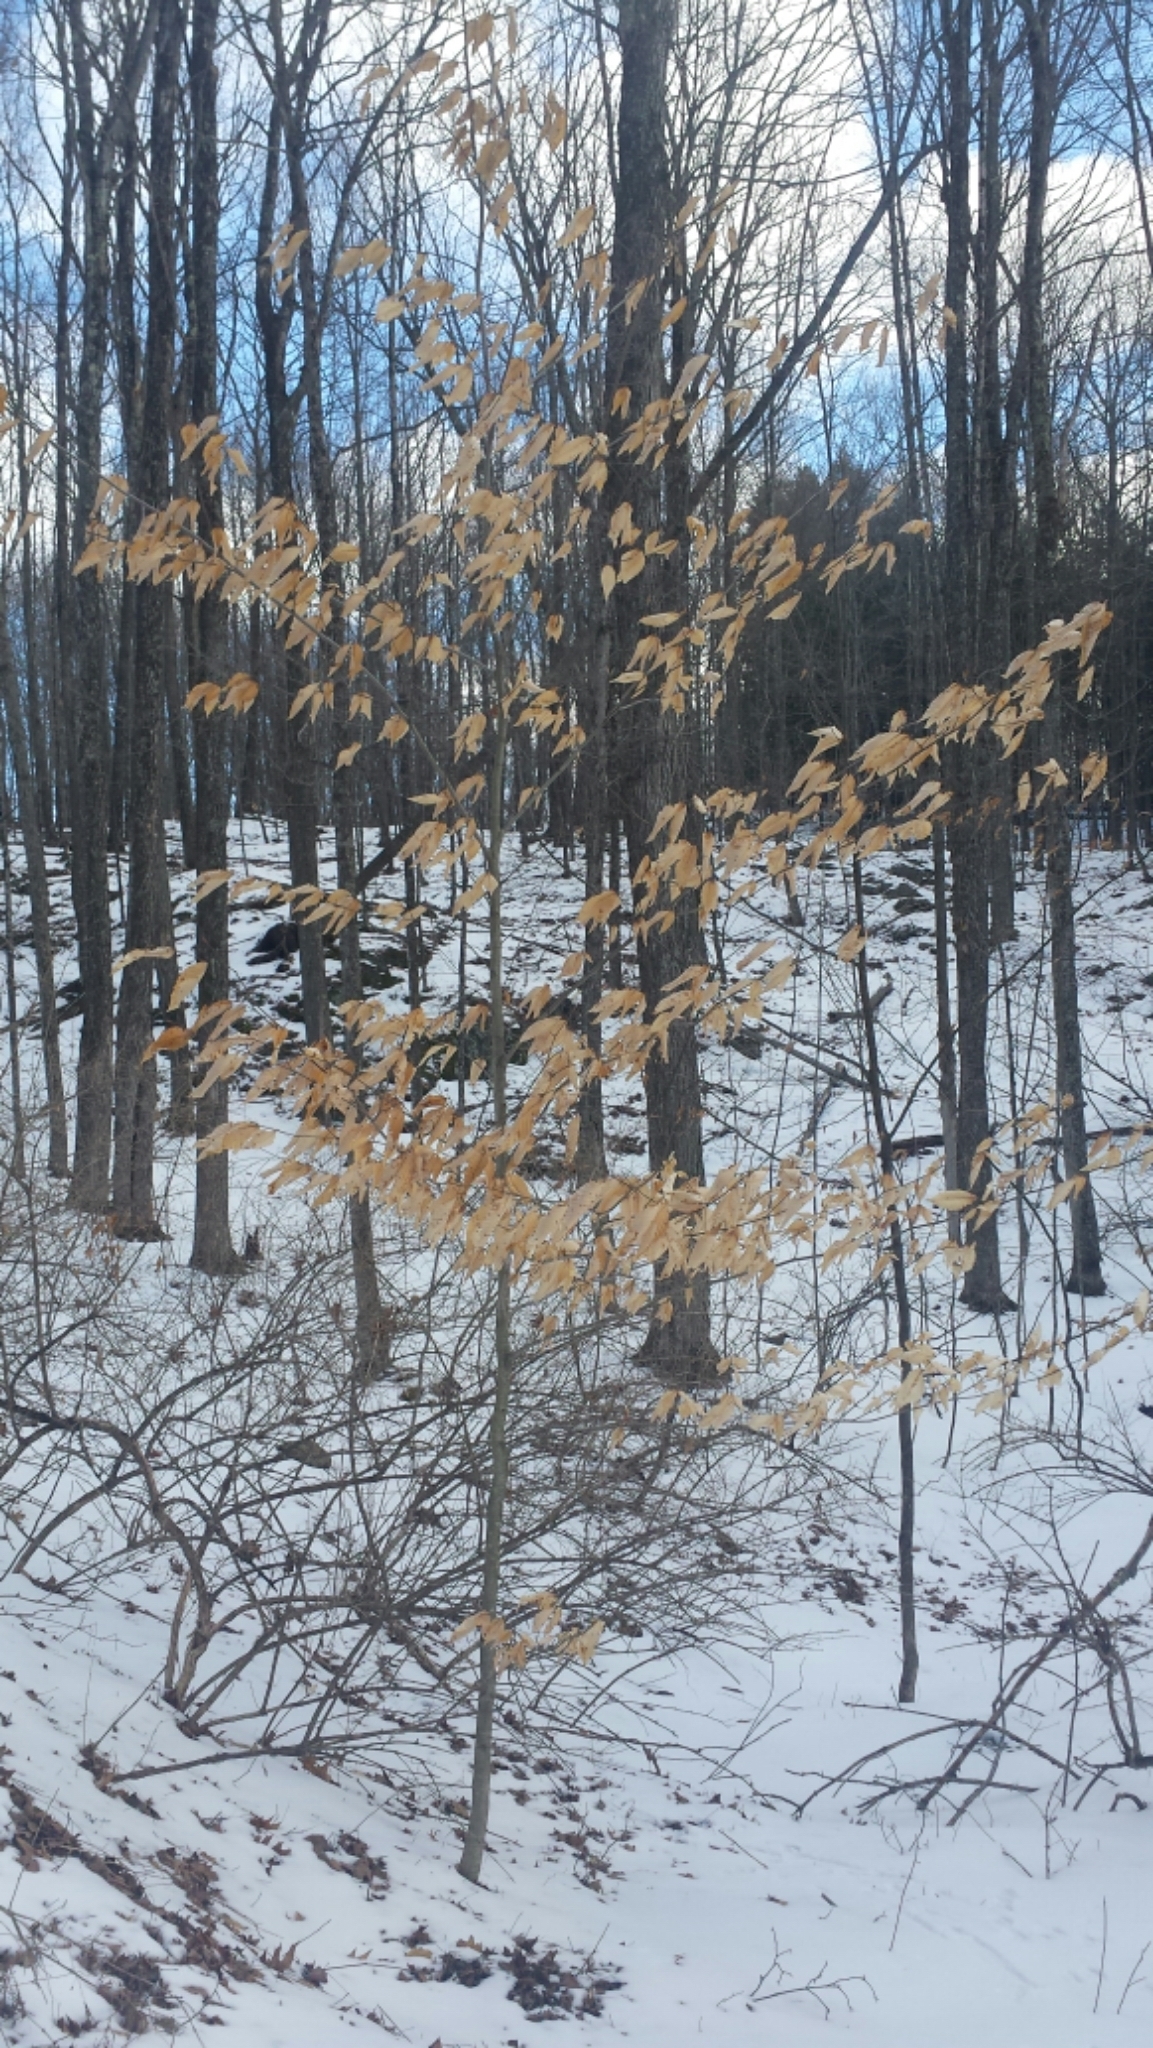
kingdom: Plantae
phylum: Tracheophyta
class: Magnoliopsida
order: Fagales
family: Fagaceae
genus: Fagus
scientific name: Fagus grandifolia
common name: American beech
